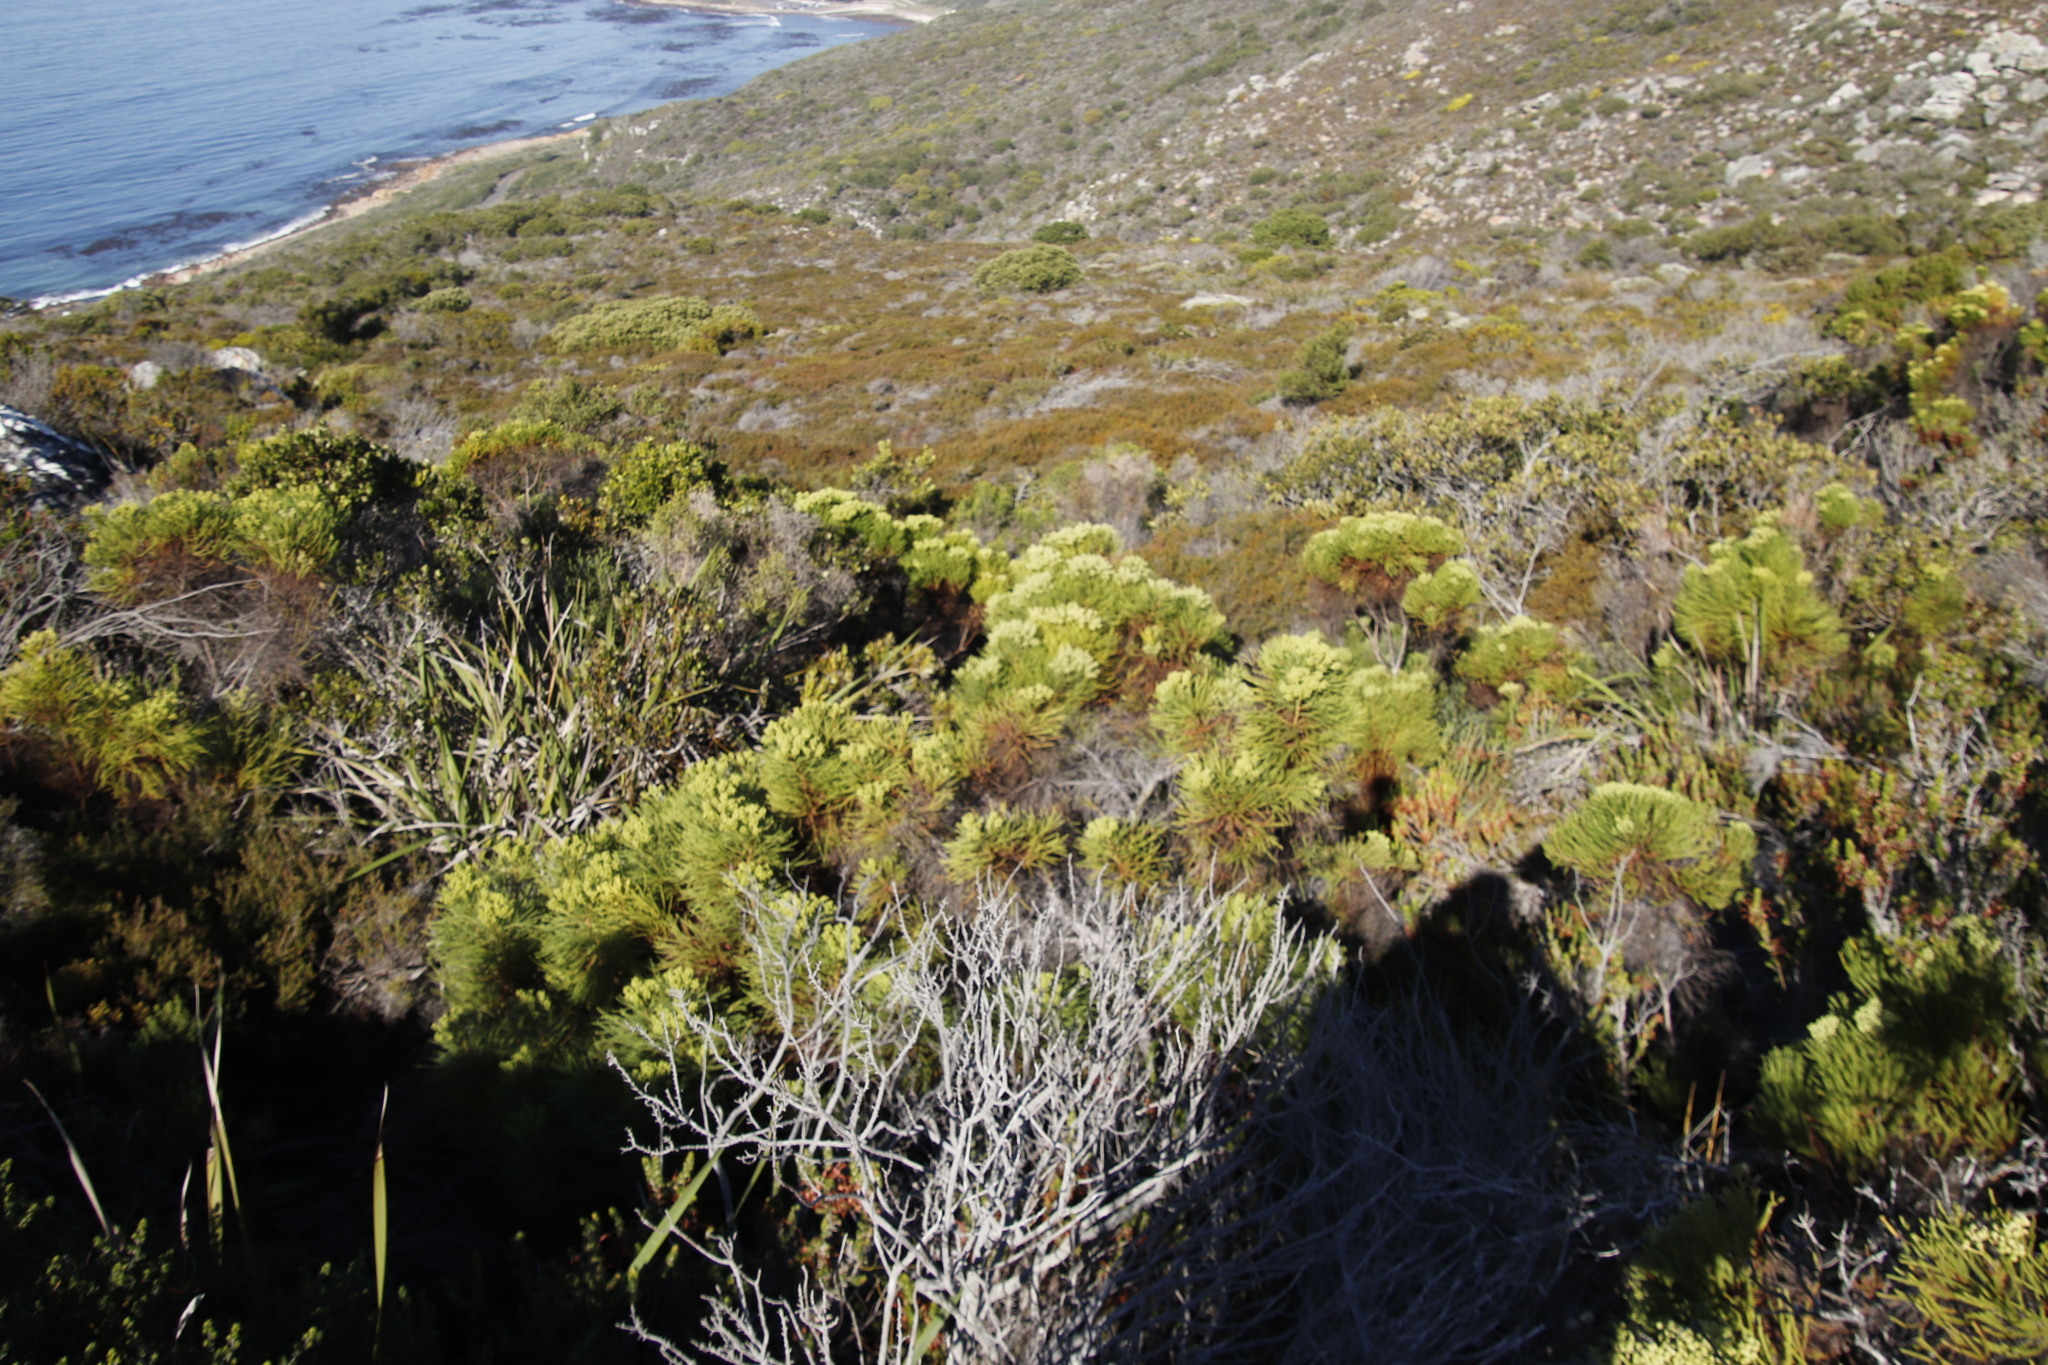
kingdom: Plantae
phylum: Tracheophyta
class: Magnoliopsida
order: Bruniales
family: Bruniaceae
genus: Berzelia
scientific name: Berzelia lanuginosa
